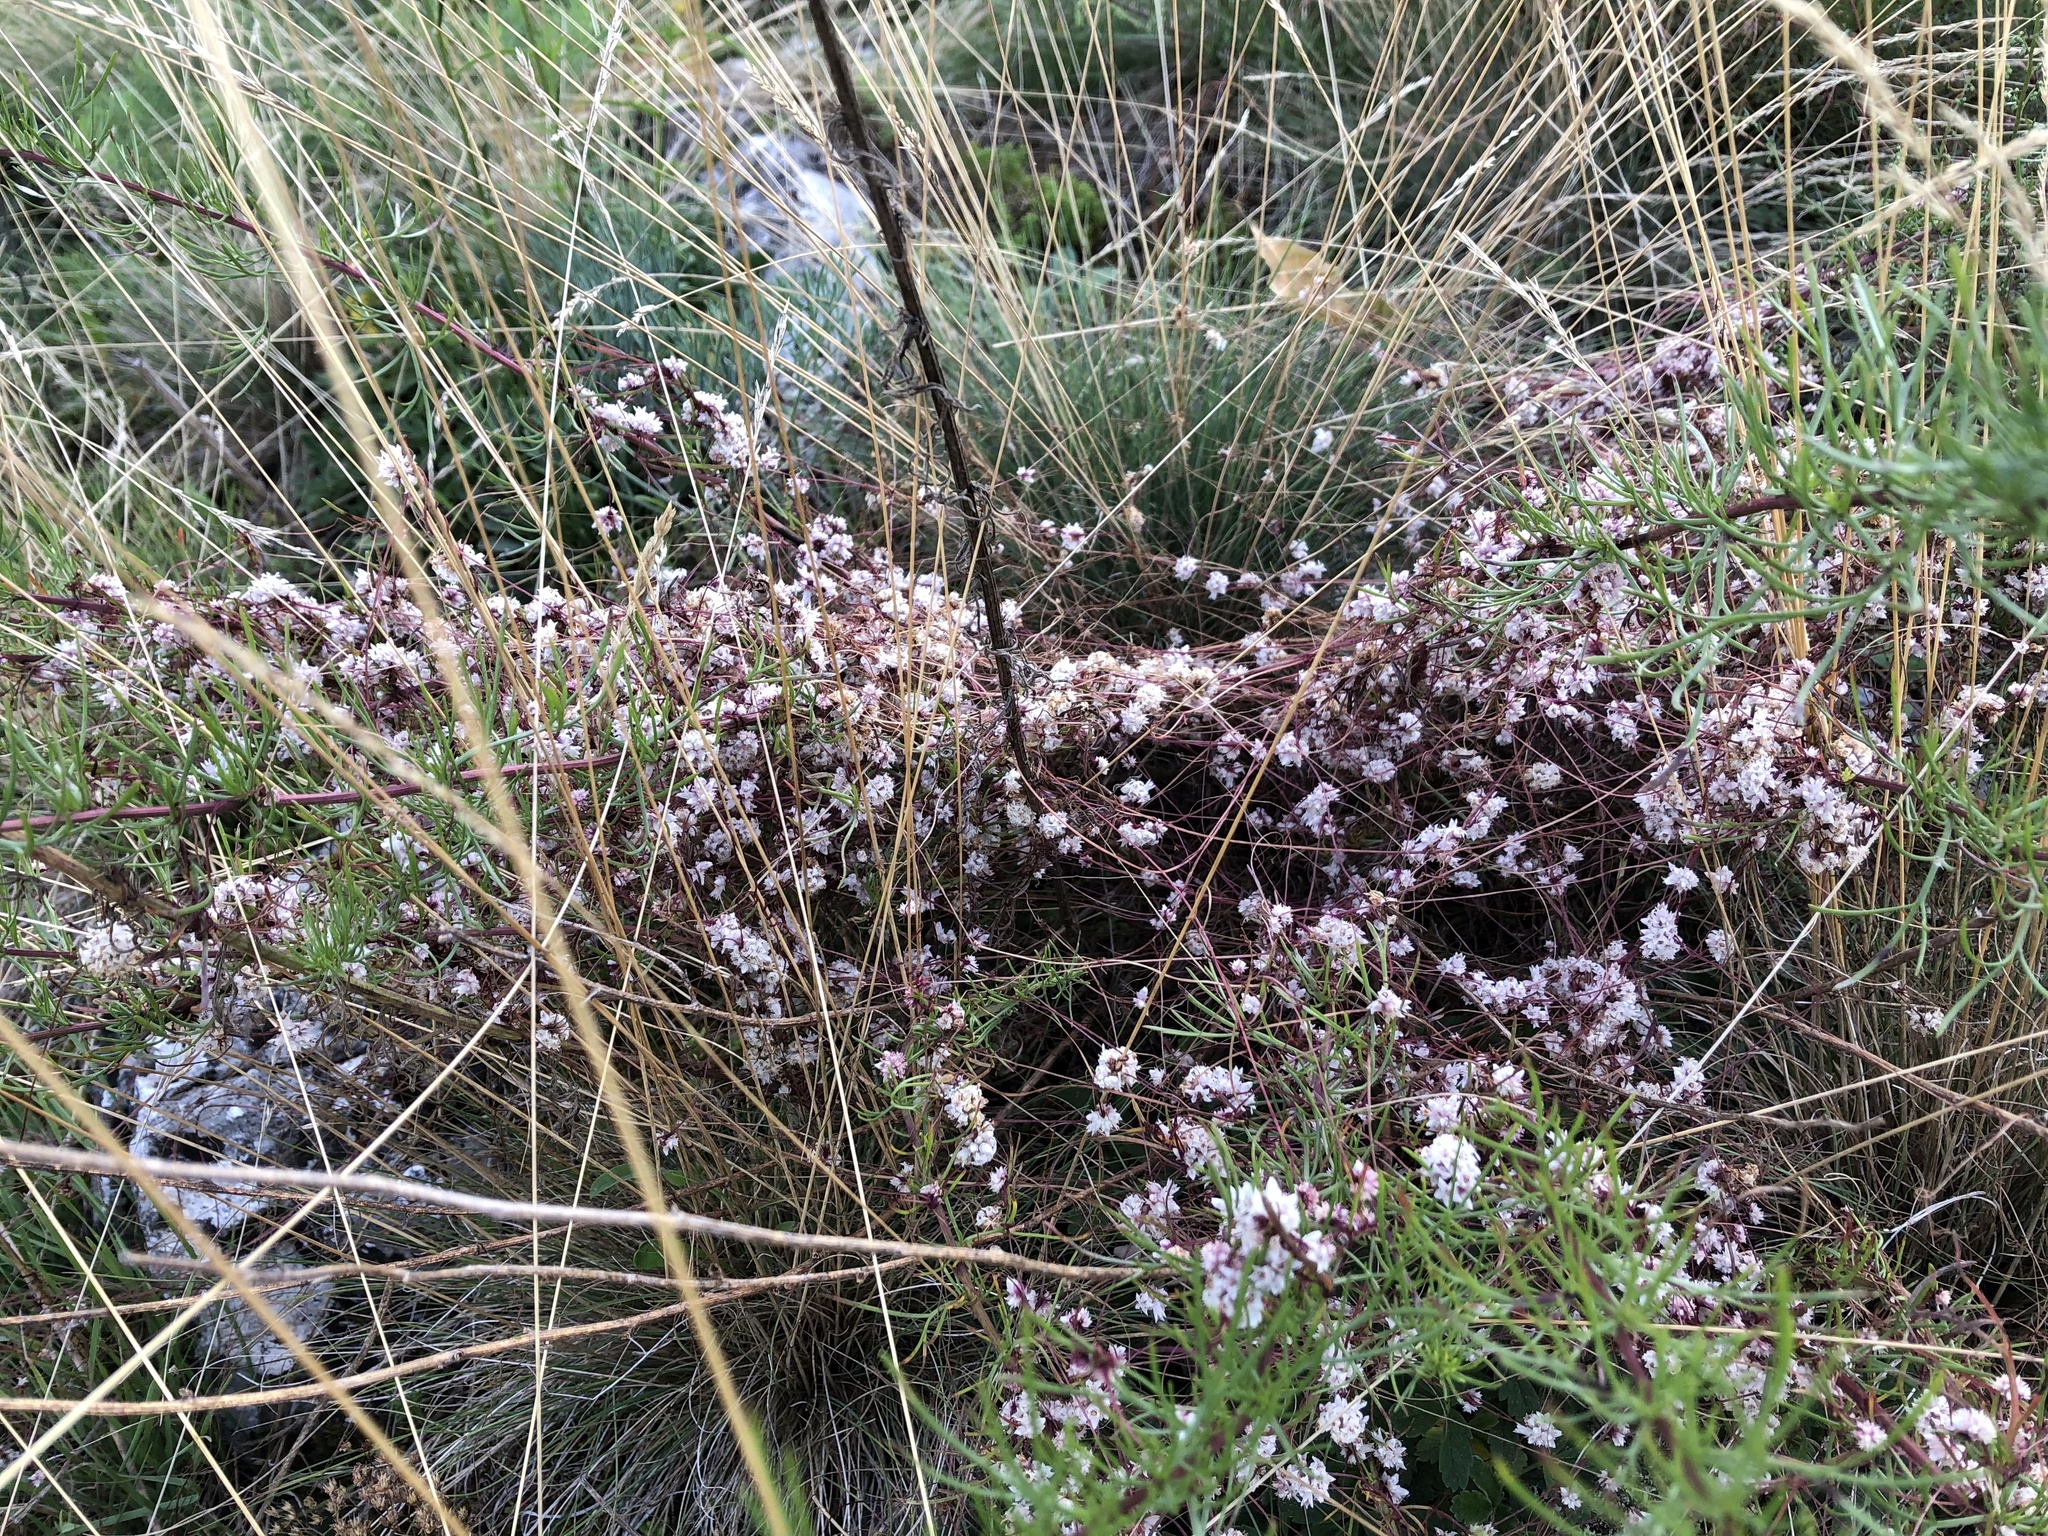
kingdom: Plantae
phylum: Tracheophyta
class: Magnoliopsida
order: Solanales
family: Convolvulaceae
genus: Cuscuta
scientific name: Cuscuta epithymum
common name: Clover dodder
